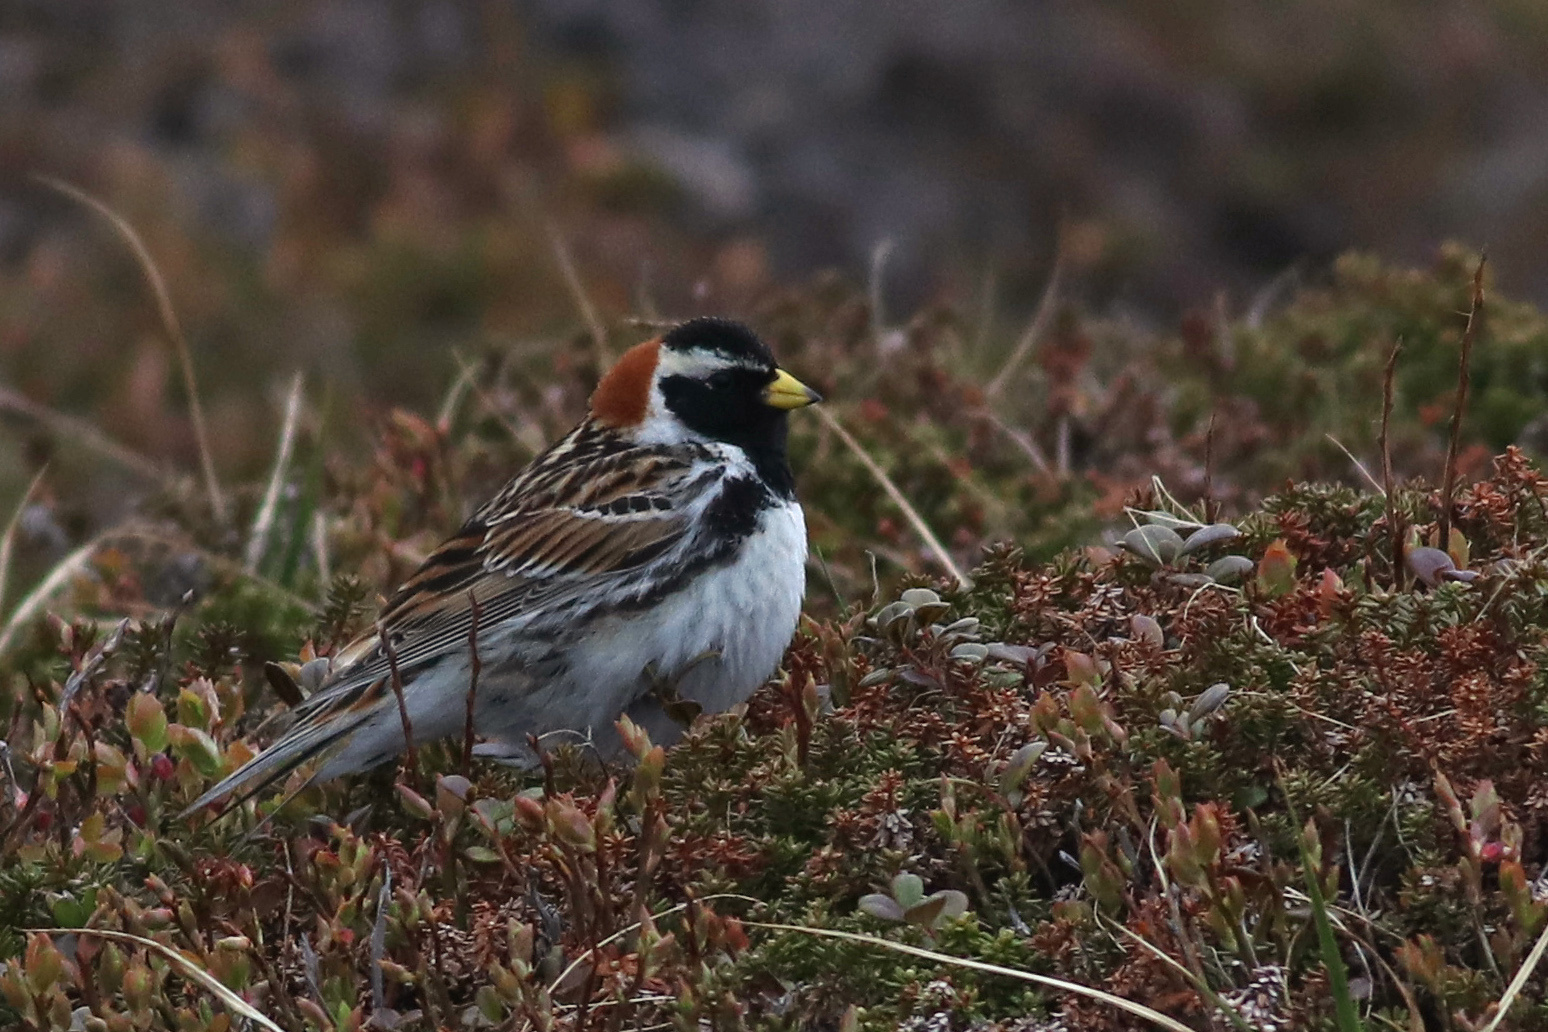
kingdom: Animalia
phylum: Chordata
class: Aves
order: Passeriformes
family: Calcariidae
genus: Calcarius
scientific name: Calcarius lapponicus
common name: Lapland longspur
